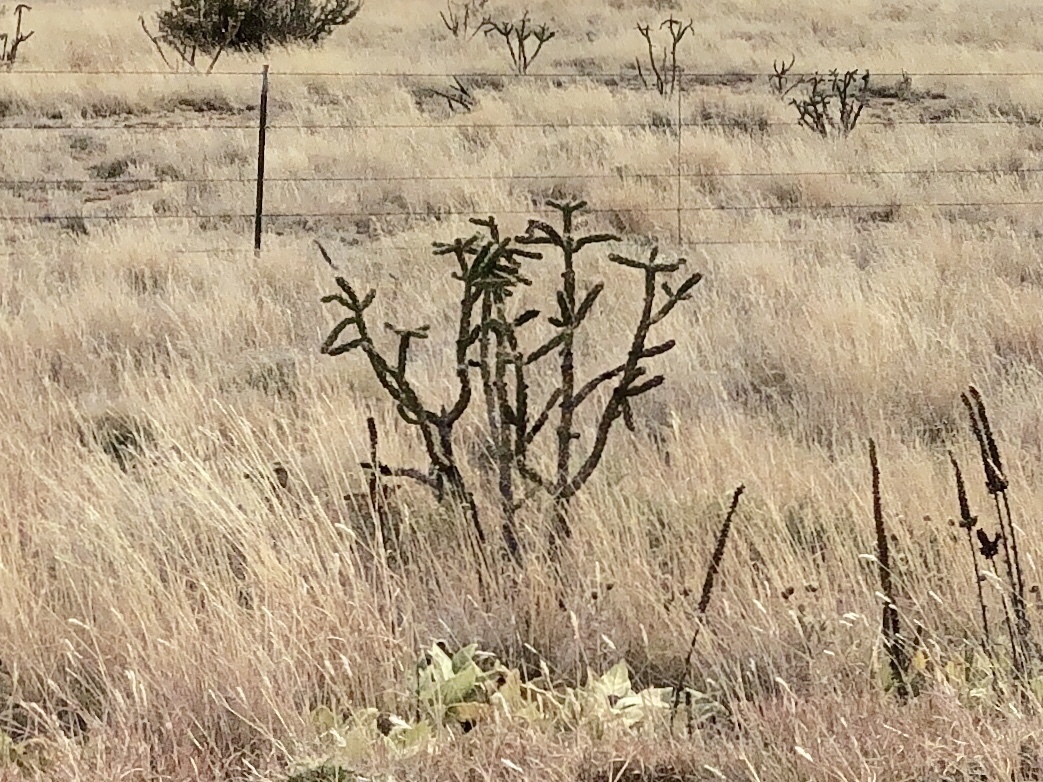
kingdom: Plantae
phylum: Tracheophyta
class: Magnoliopsida
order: Caryophyllales
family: Cactaceae
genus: Cylindropuntia
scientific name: Cylindropuntia imbricata
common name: Candelabrum cactus
